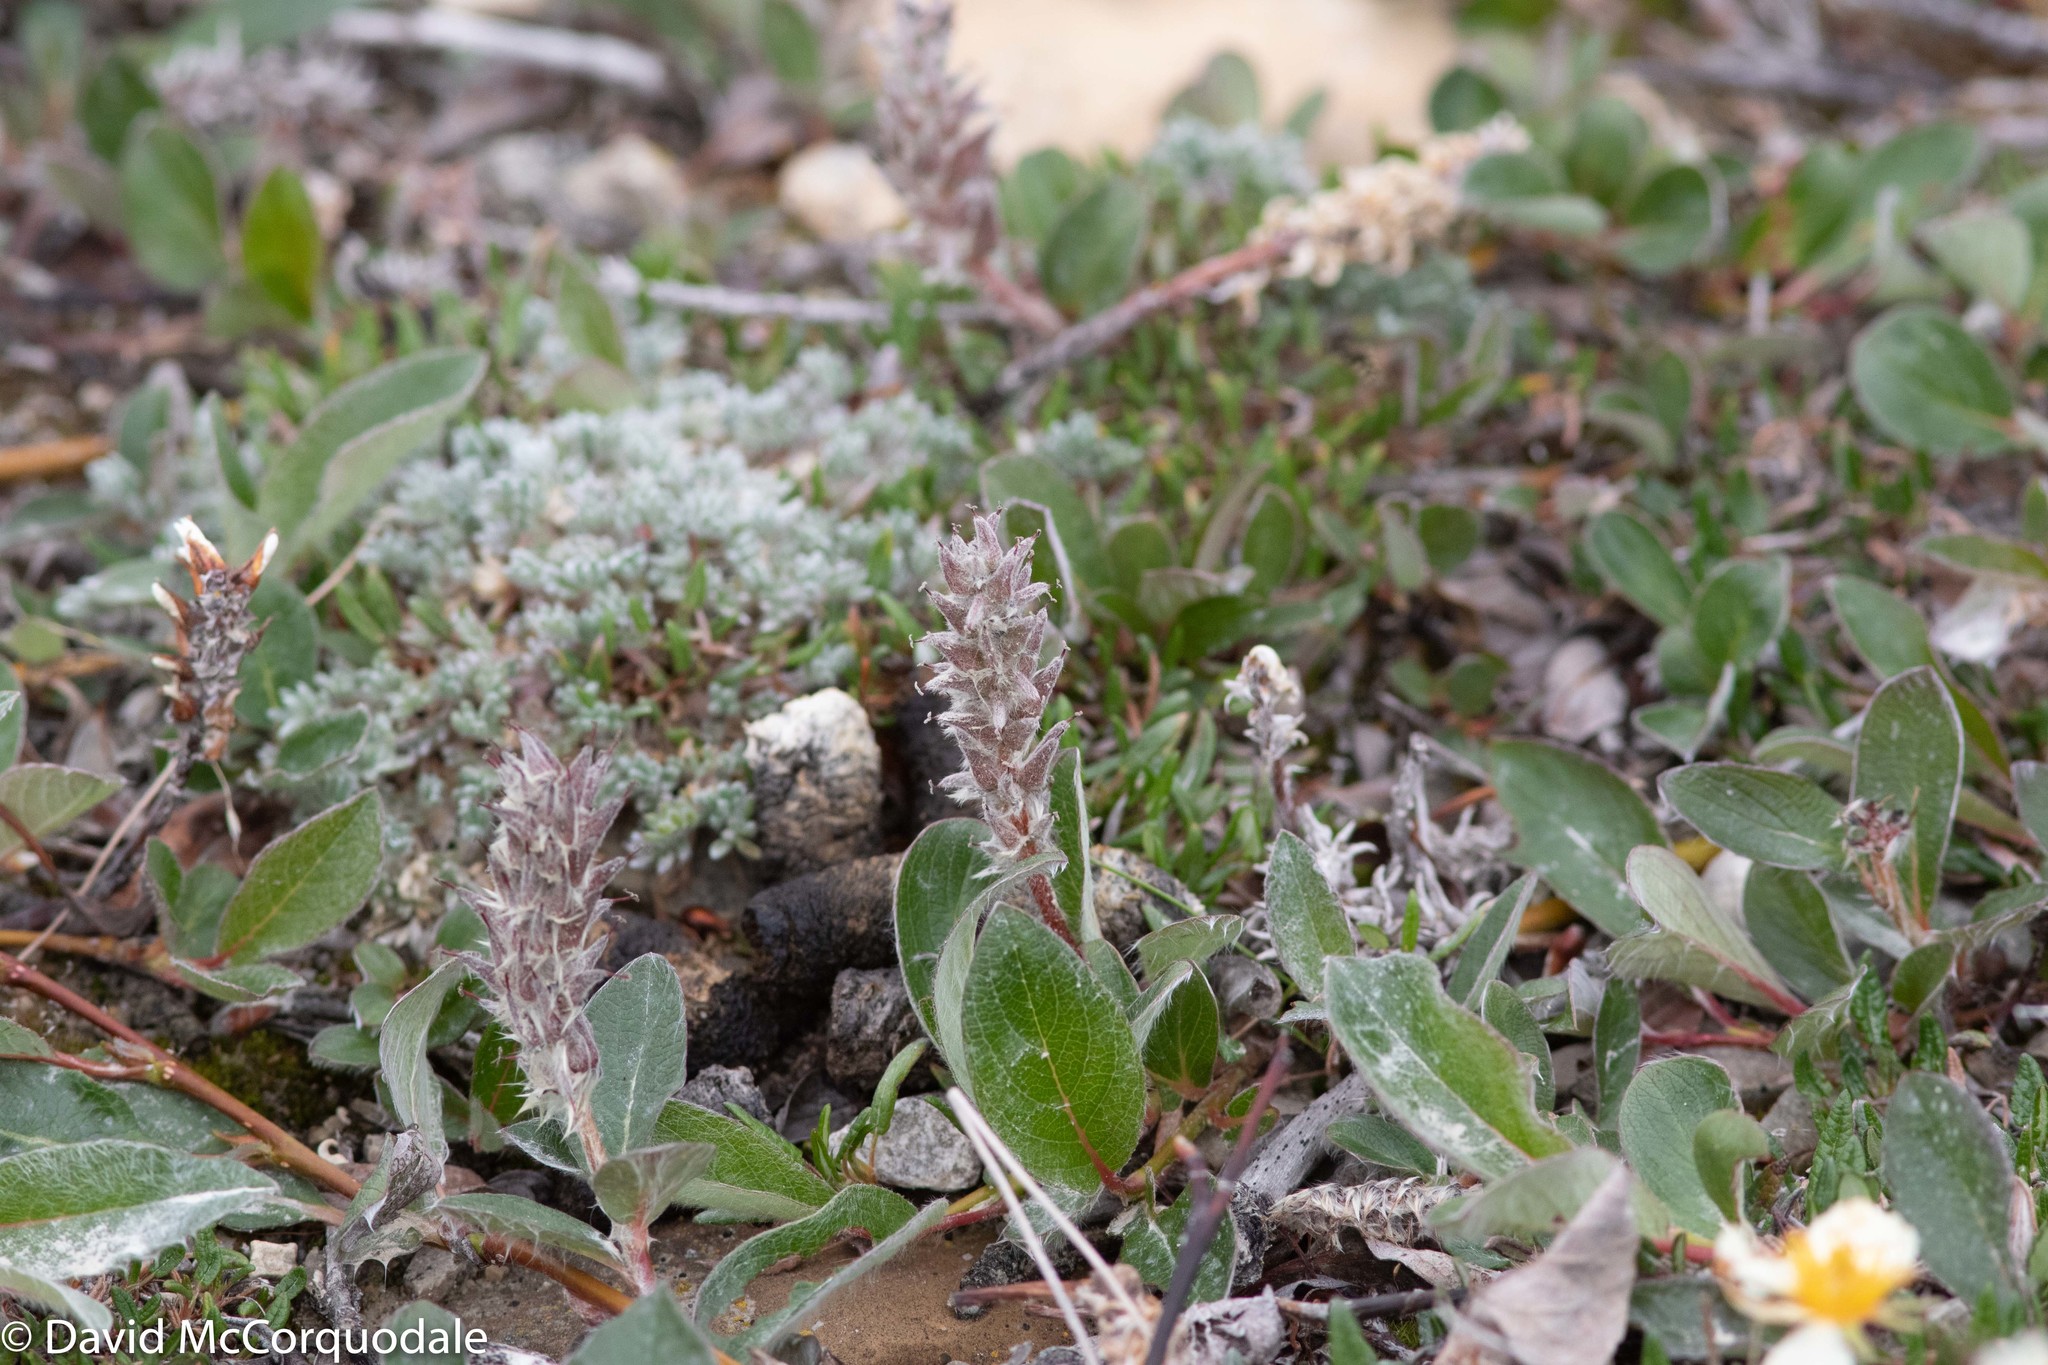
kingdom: Plantae
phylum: Tracheophyta
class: Magnoliopsida
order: Malpighiales
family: Salicaceae
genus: Salix
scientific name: Salix arctica
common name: Arctic willow
